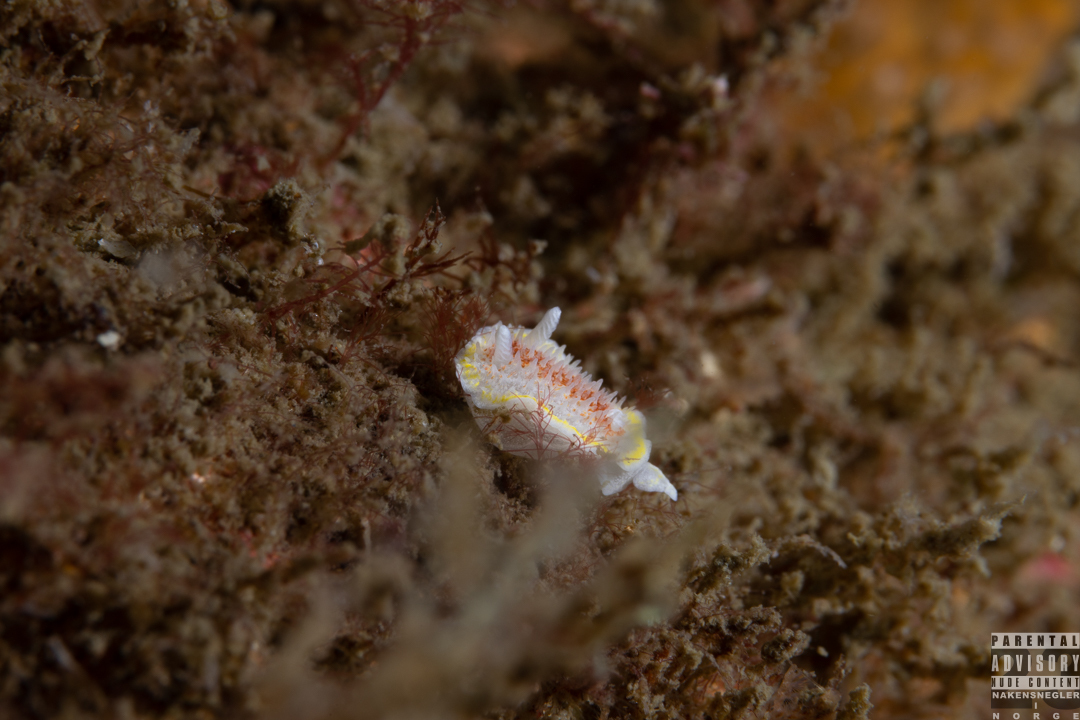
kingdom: Animalia
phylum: Mollusca
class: Gastropoda
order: Nudibranchia
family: Calycidorididae
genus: Diaphorodoris
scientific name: Diaphorodoris luteocincta
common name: Fried egg nudibranch
